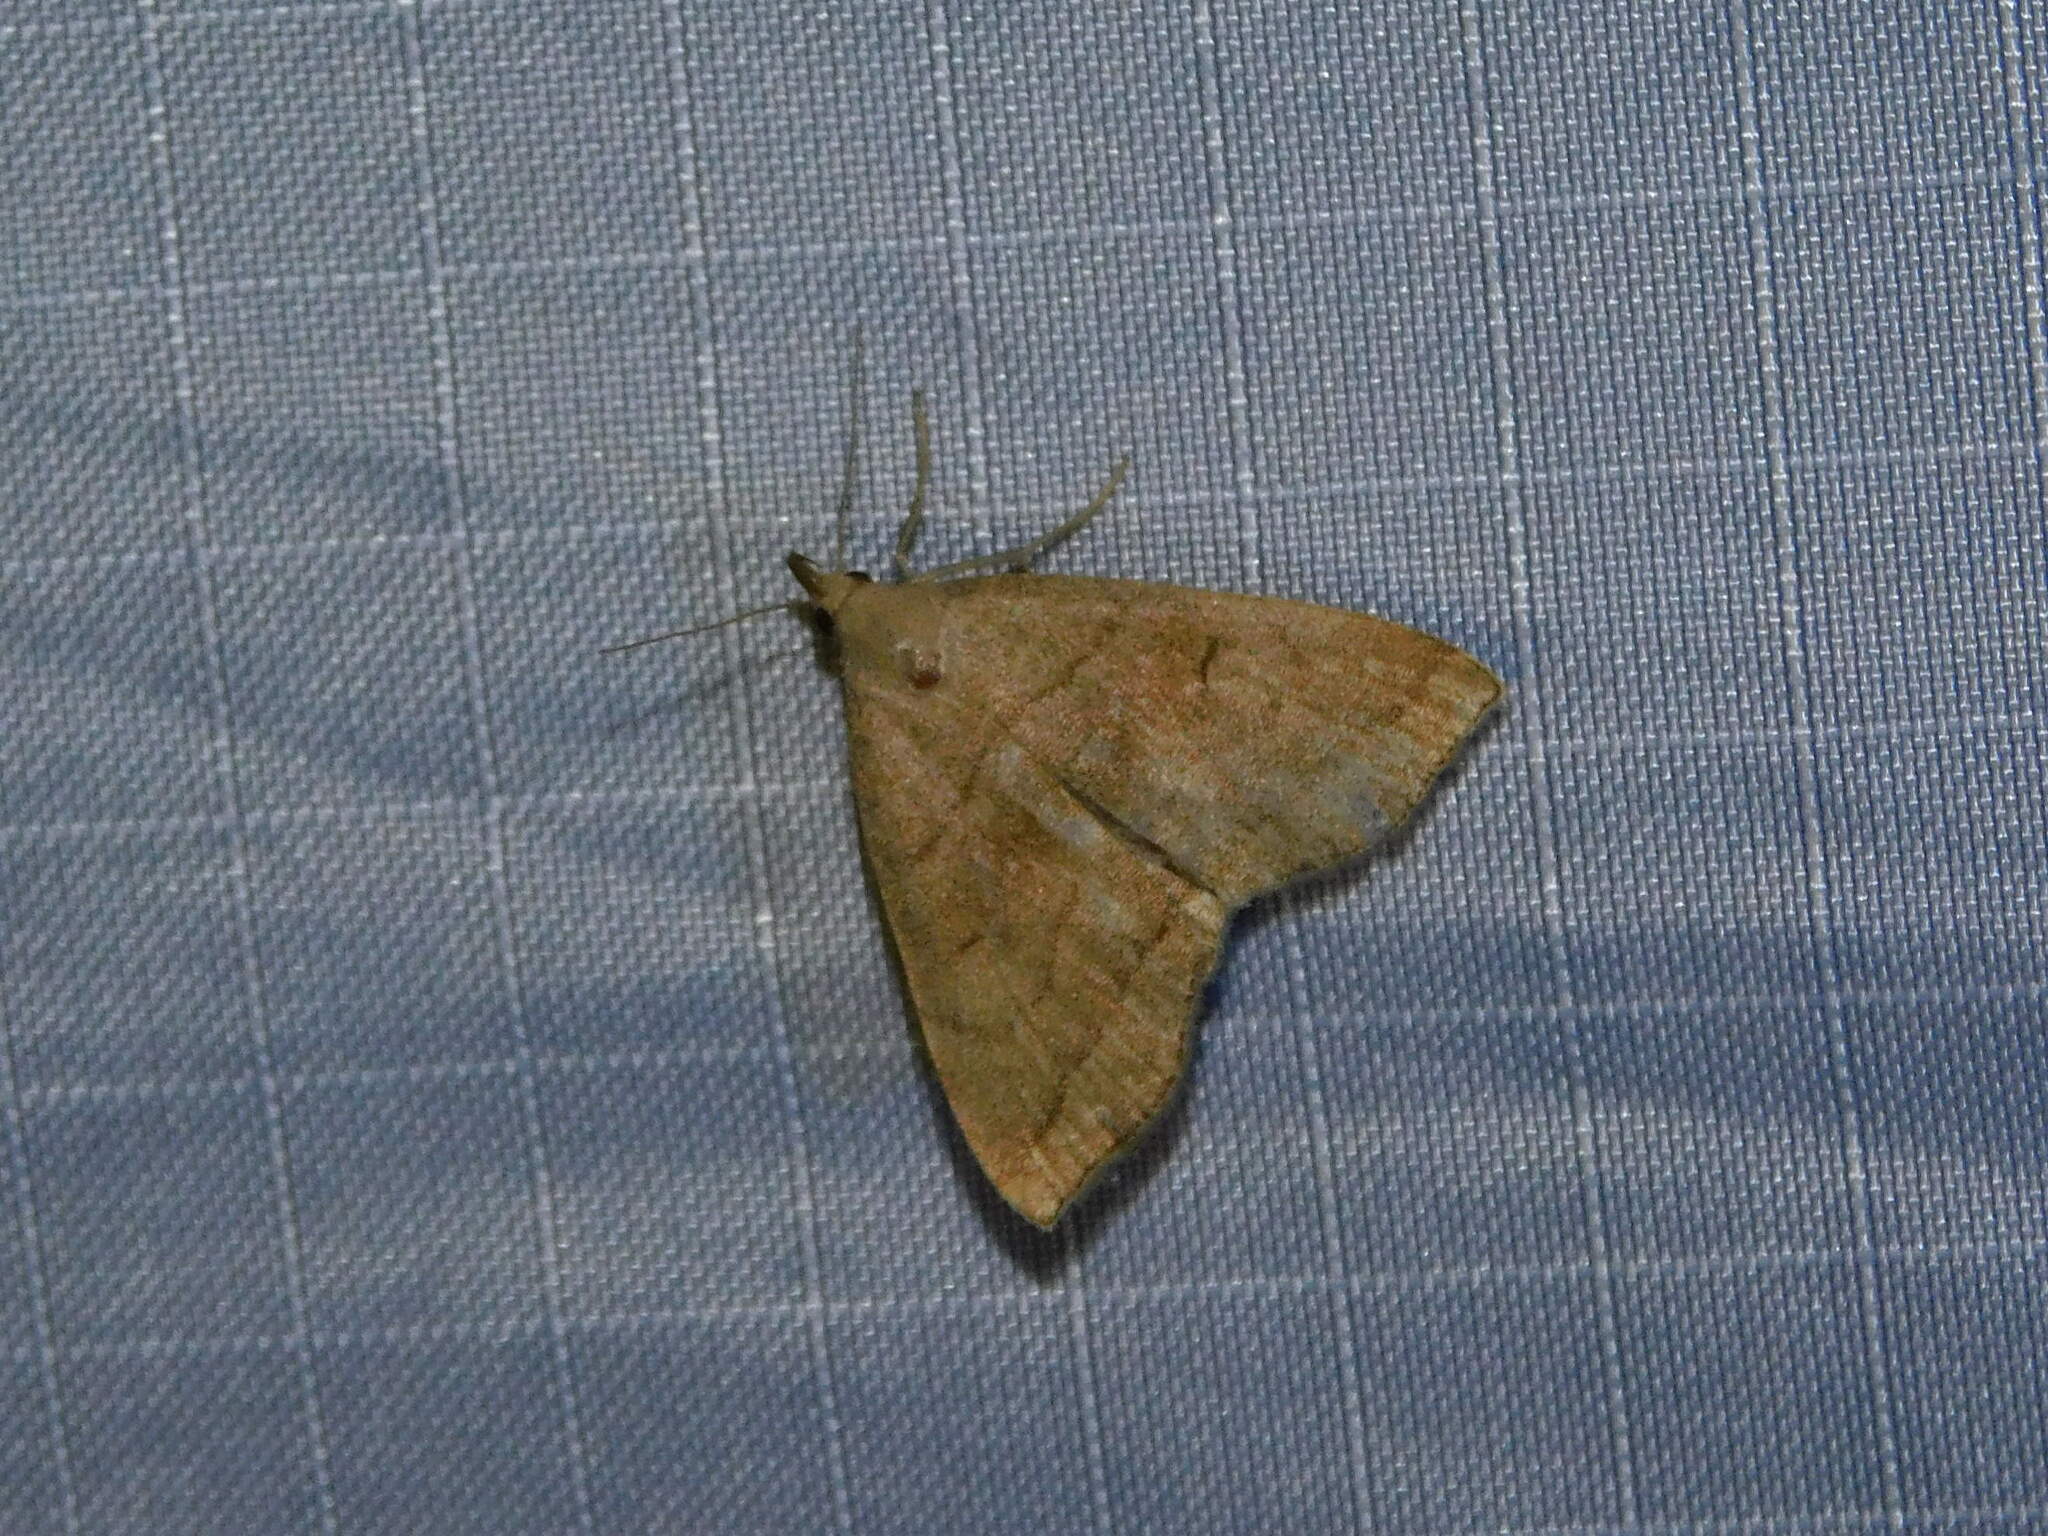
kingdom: Animalia
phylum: Arthropoda
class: Insecta
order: Lepidoptera
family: Erebidae
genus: Herminia
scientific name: Herminia tarsicrinalis
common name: Shaded fan-foot
